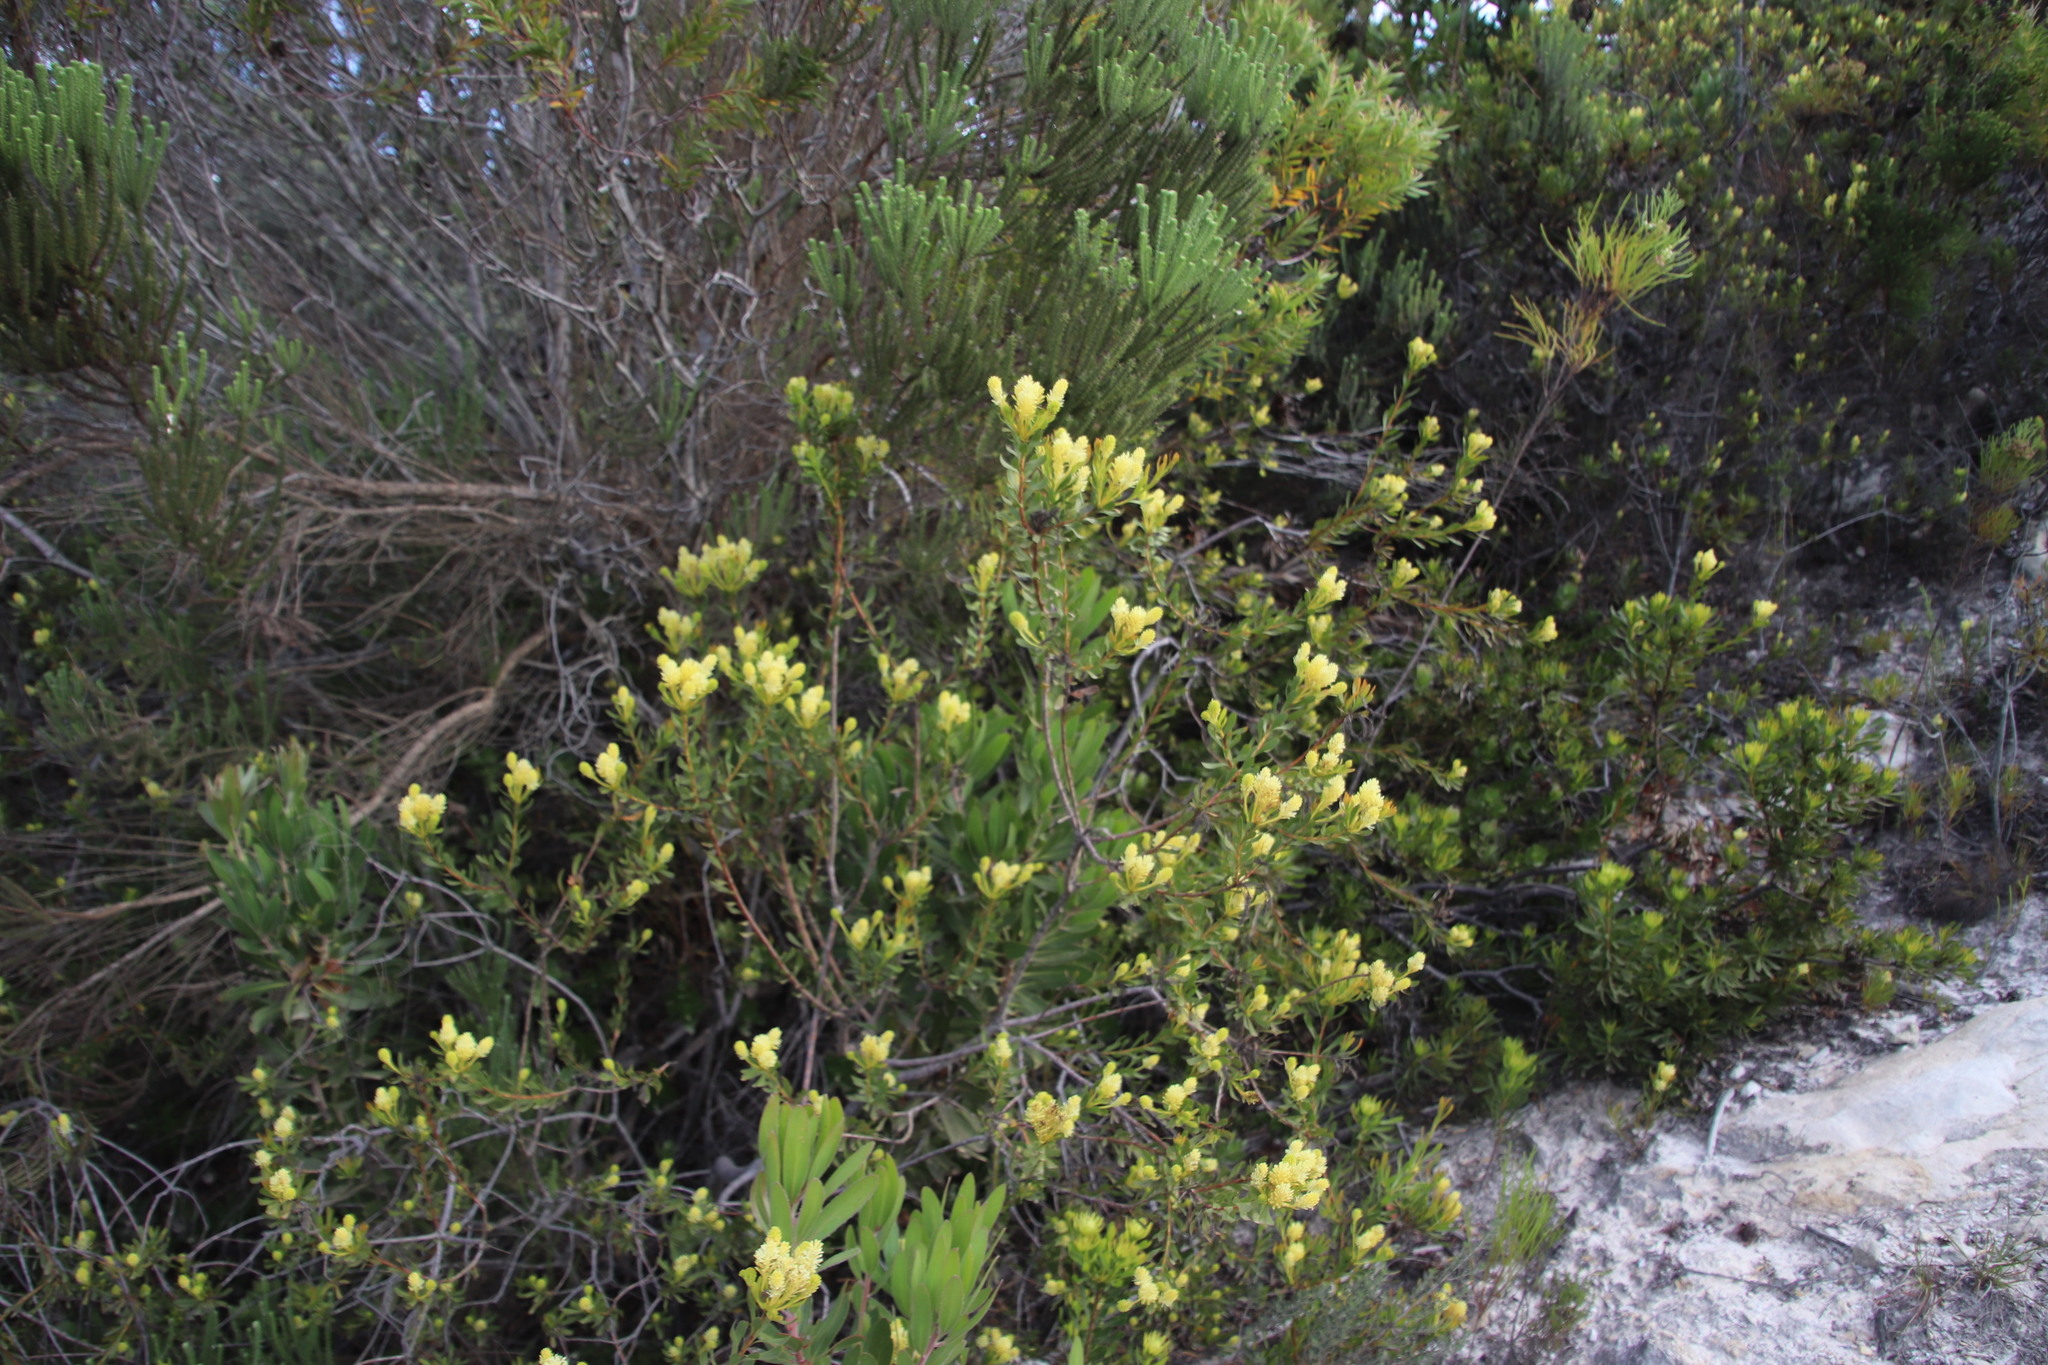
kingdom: Plantae
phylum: Tracheophyta
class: Magnoliopsida
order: Proteales
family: Proteaceae
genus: Aulax
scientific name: Aulax umbellata
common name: Broad-leaf featherbush
